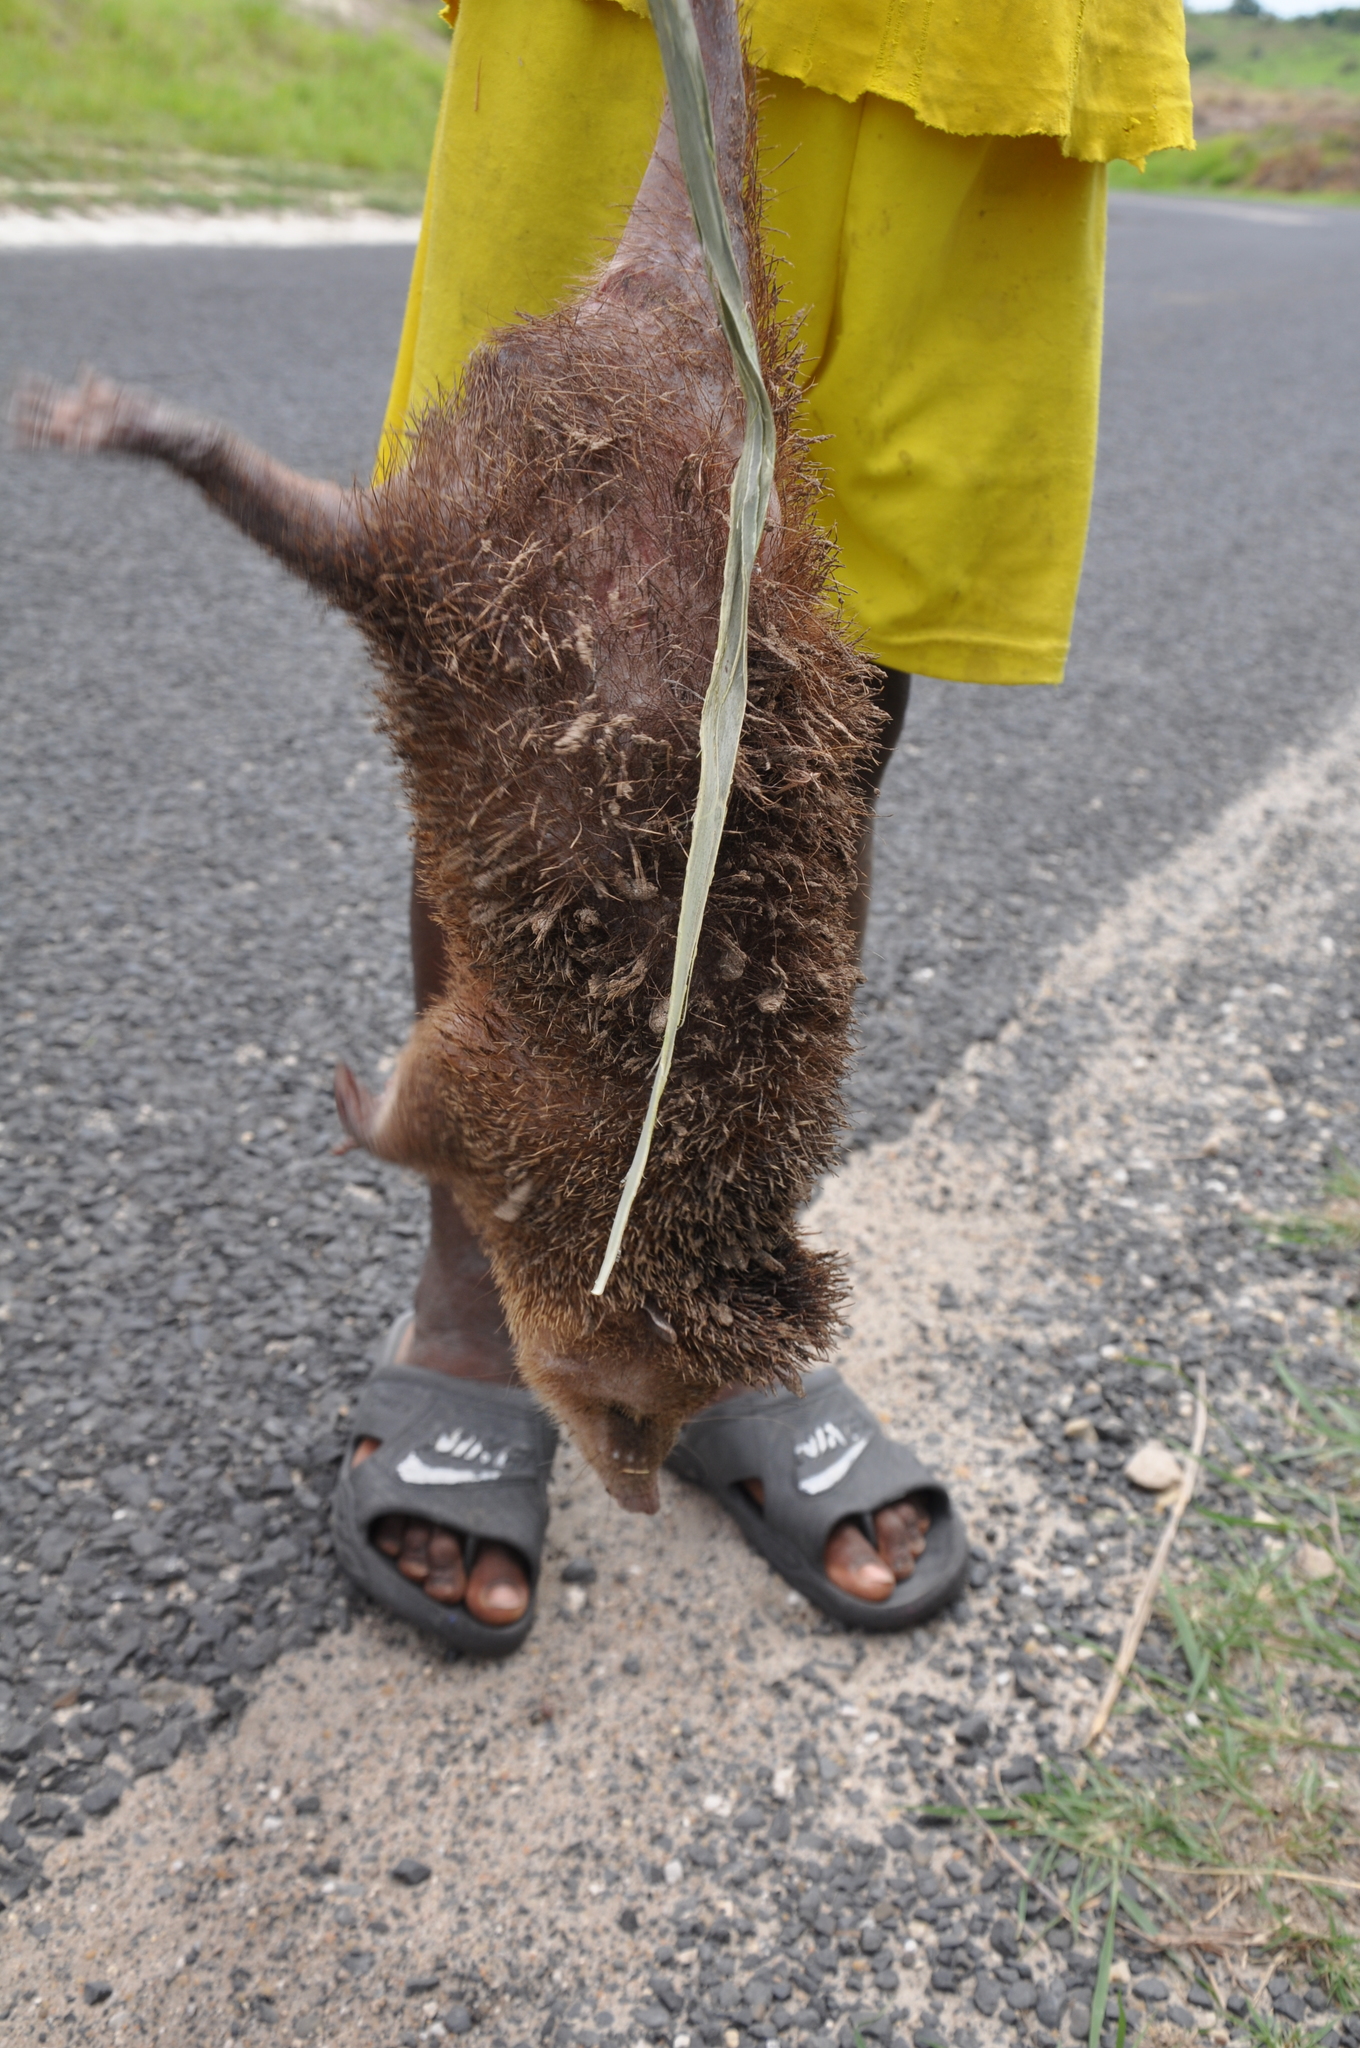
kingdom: Animalia
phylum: Chordata
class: Mammalia
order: Afrosoricida
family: Tenrecidae
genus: Tenrec
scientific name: Tenrec ecaudatus
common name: Common tenrec
